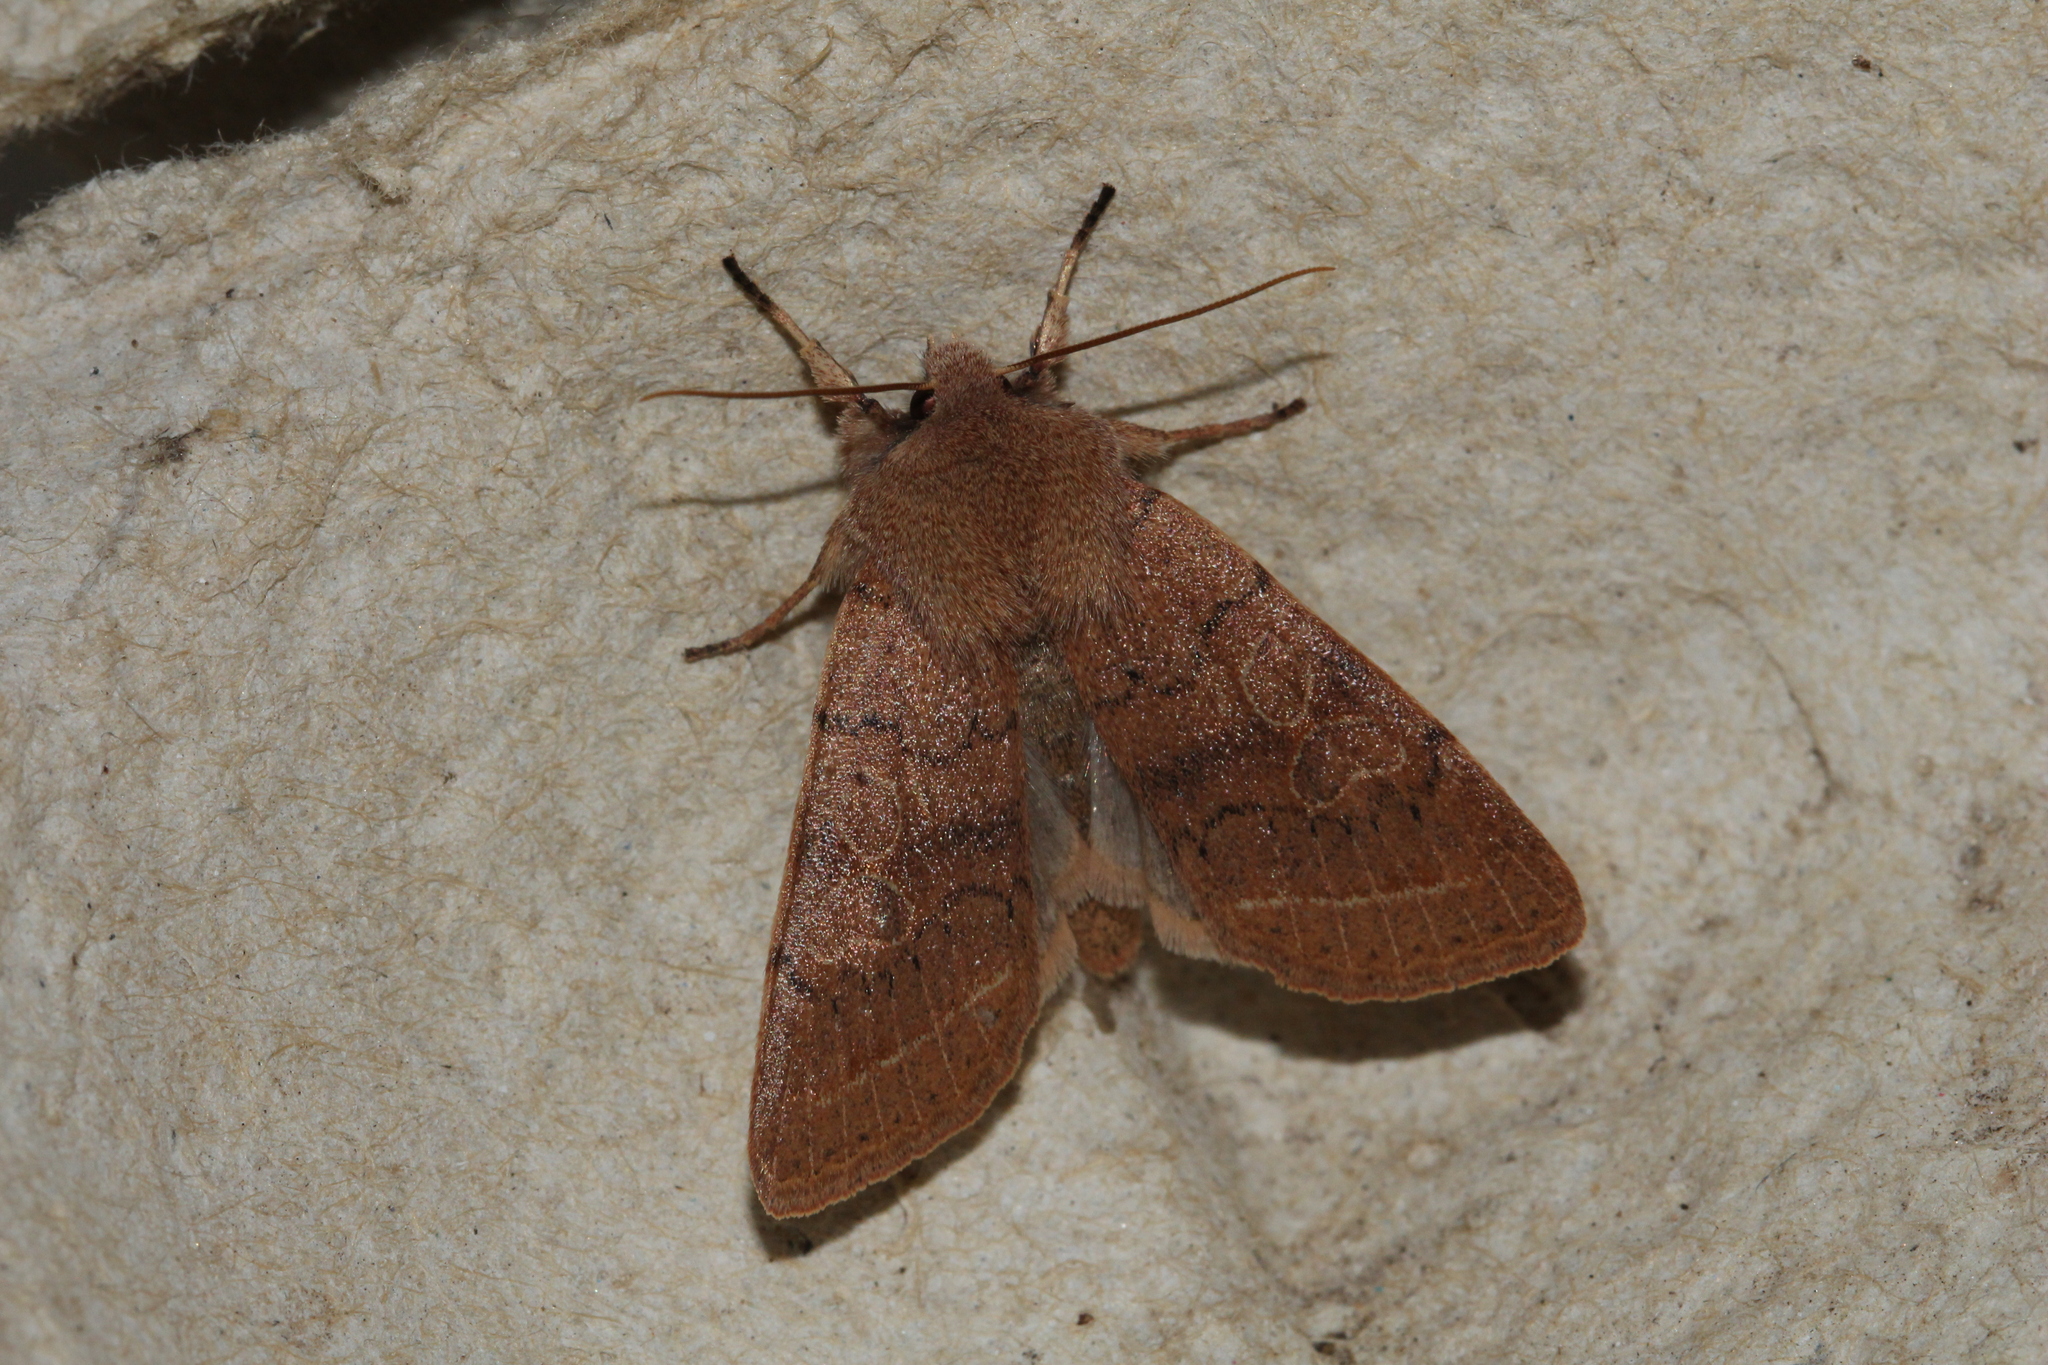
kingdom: Animalia
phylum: Arthropoda
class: Insecta
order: Lepidoptera
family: Noctuidae
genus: Orthosia
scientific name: Orthosia cerasi
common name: Common quaker
